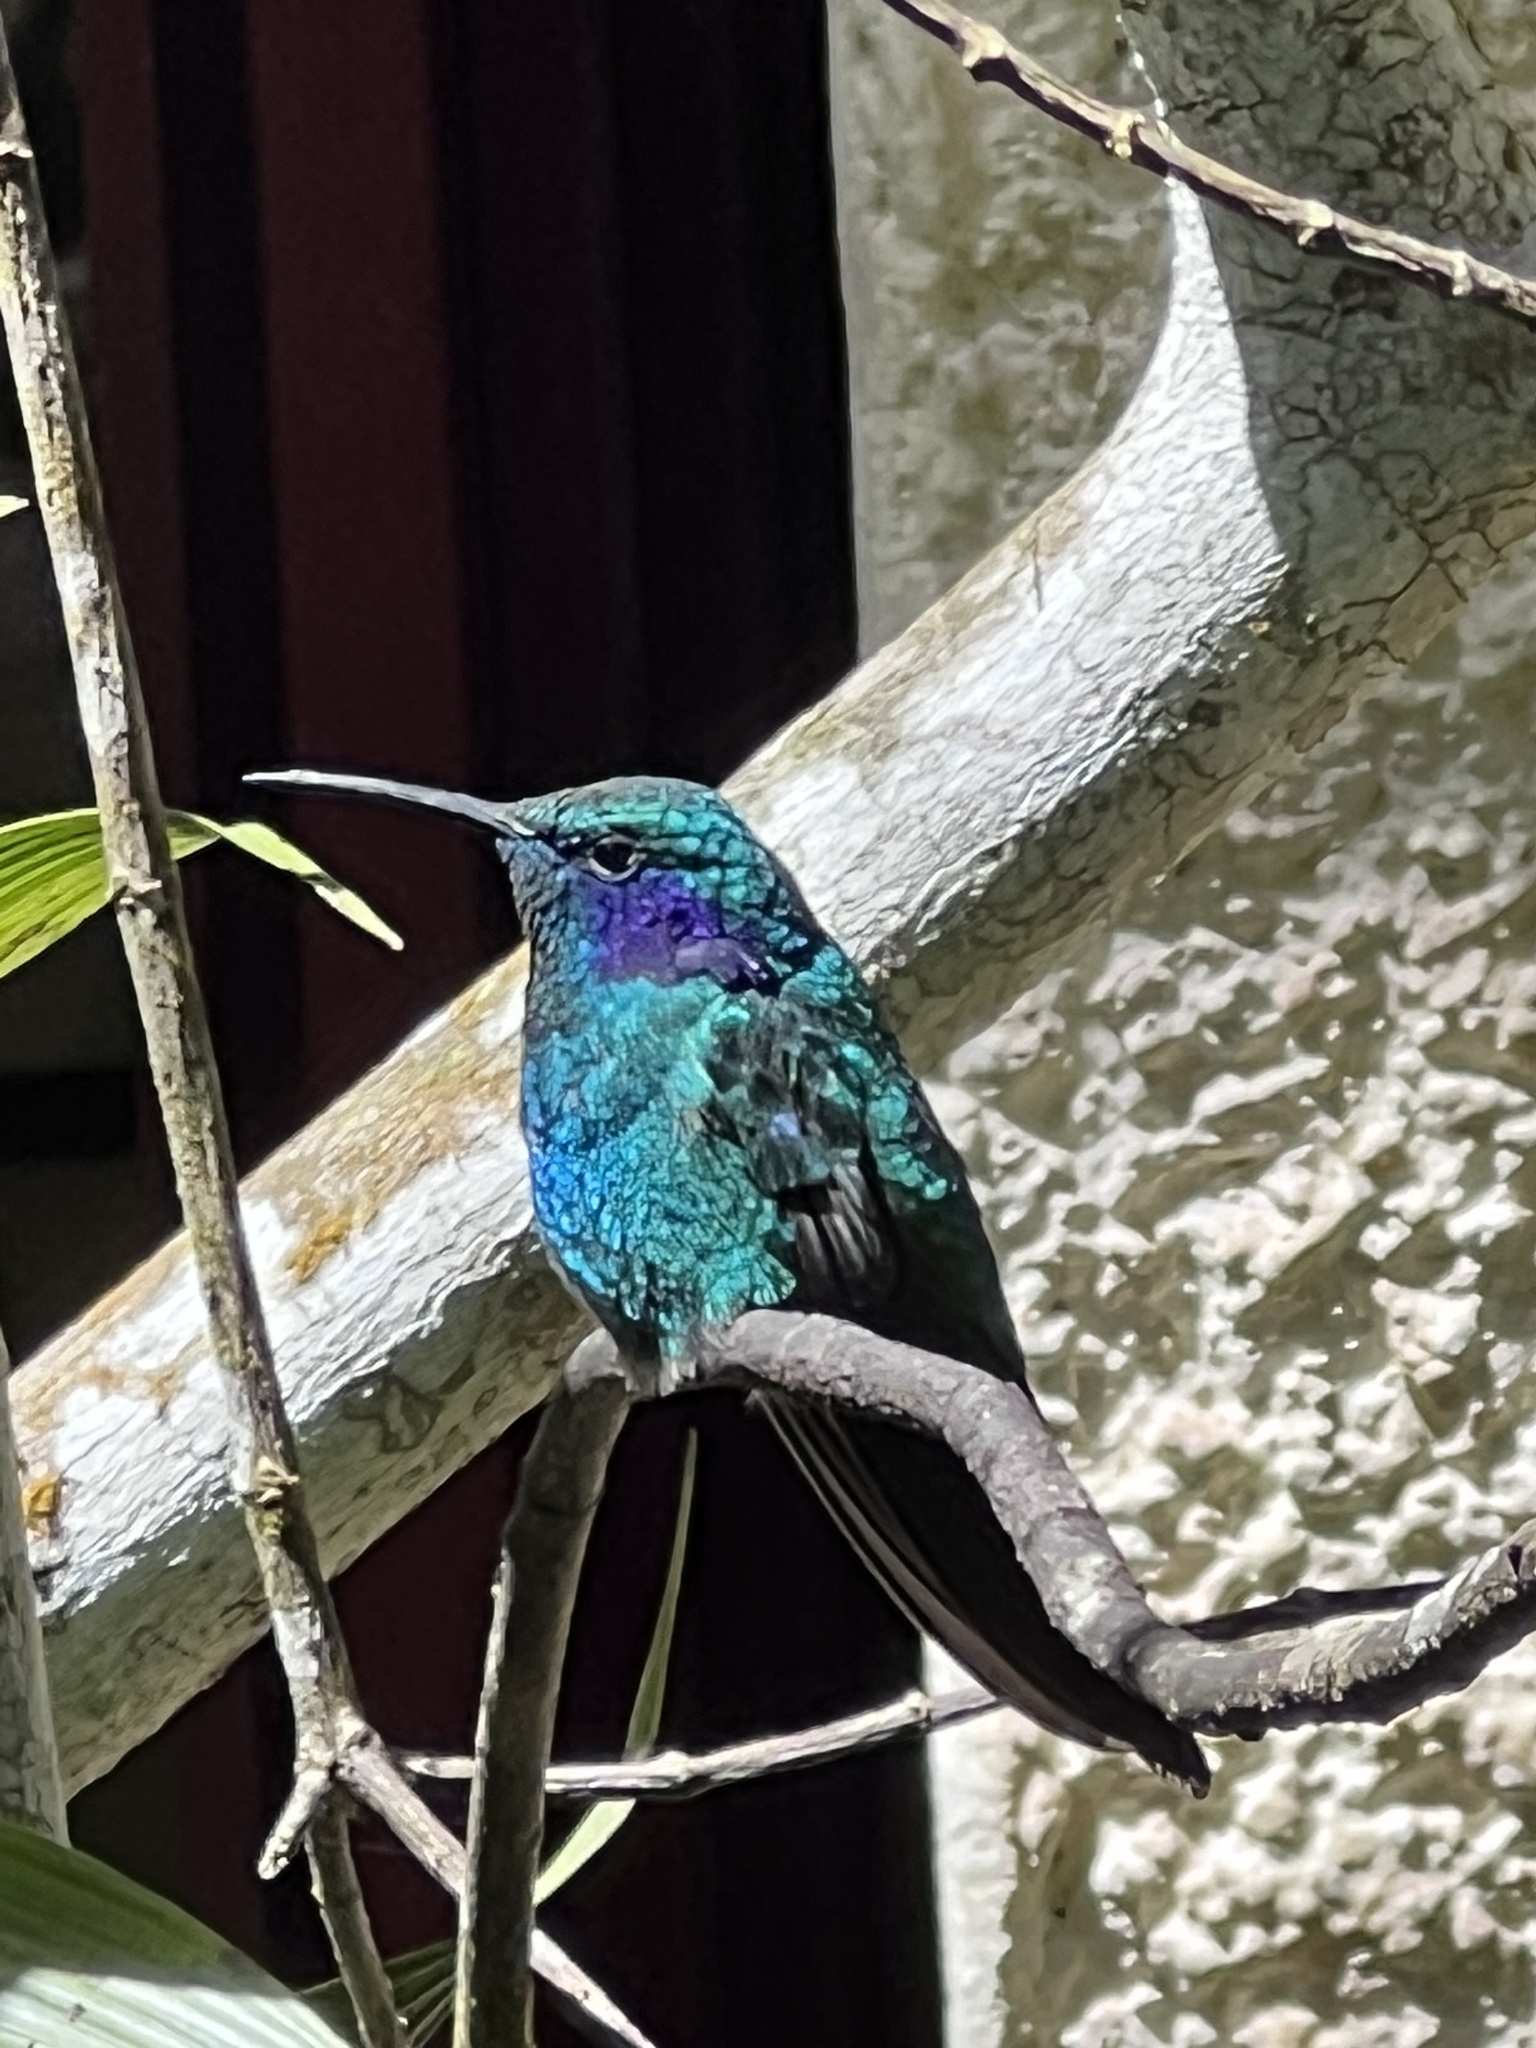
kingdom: Animalia
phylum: Chordata
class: Aves
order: Apodiformes
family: Trochilidae
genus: Colibri
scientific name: Colibri cyanotus
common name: Lesser violetear
